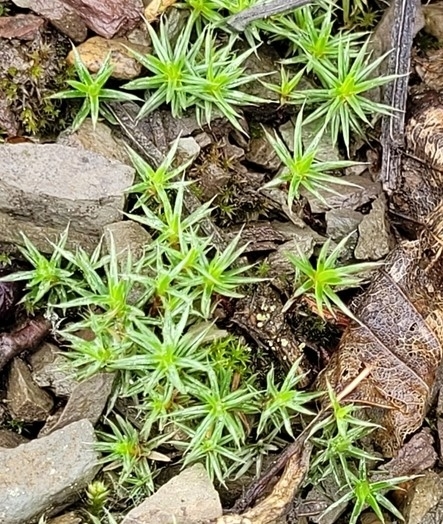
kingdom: Plantae
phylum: Bryophyta
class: Polytrichopsida
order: Polytrichales
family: Polytrichaceae
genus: Polytrichum
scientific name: Polytrichum piliferum
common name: Bristly haircap
